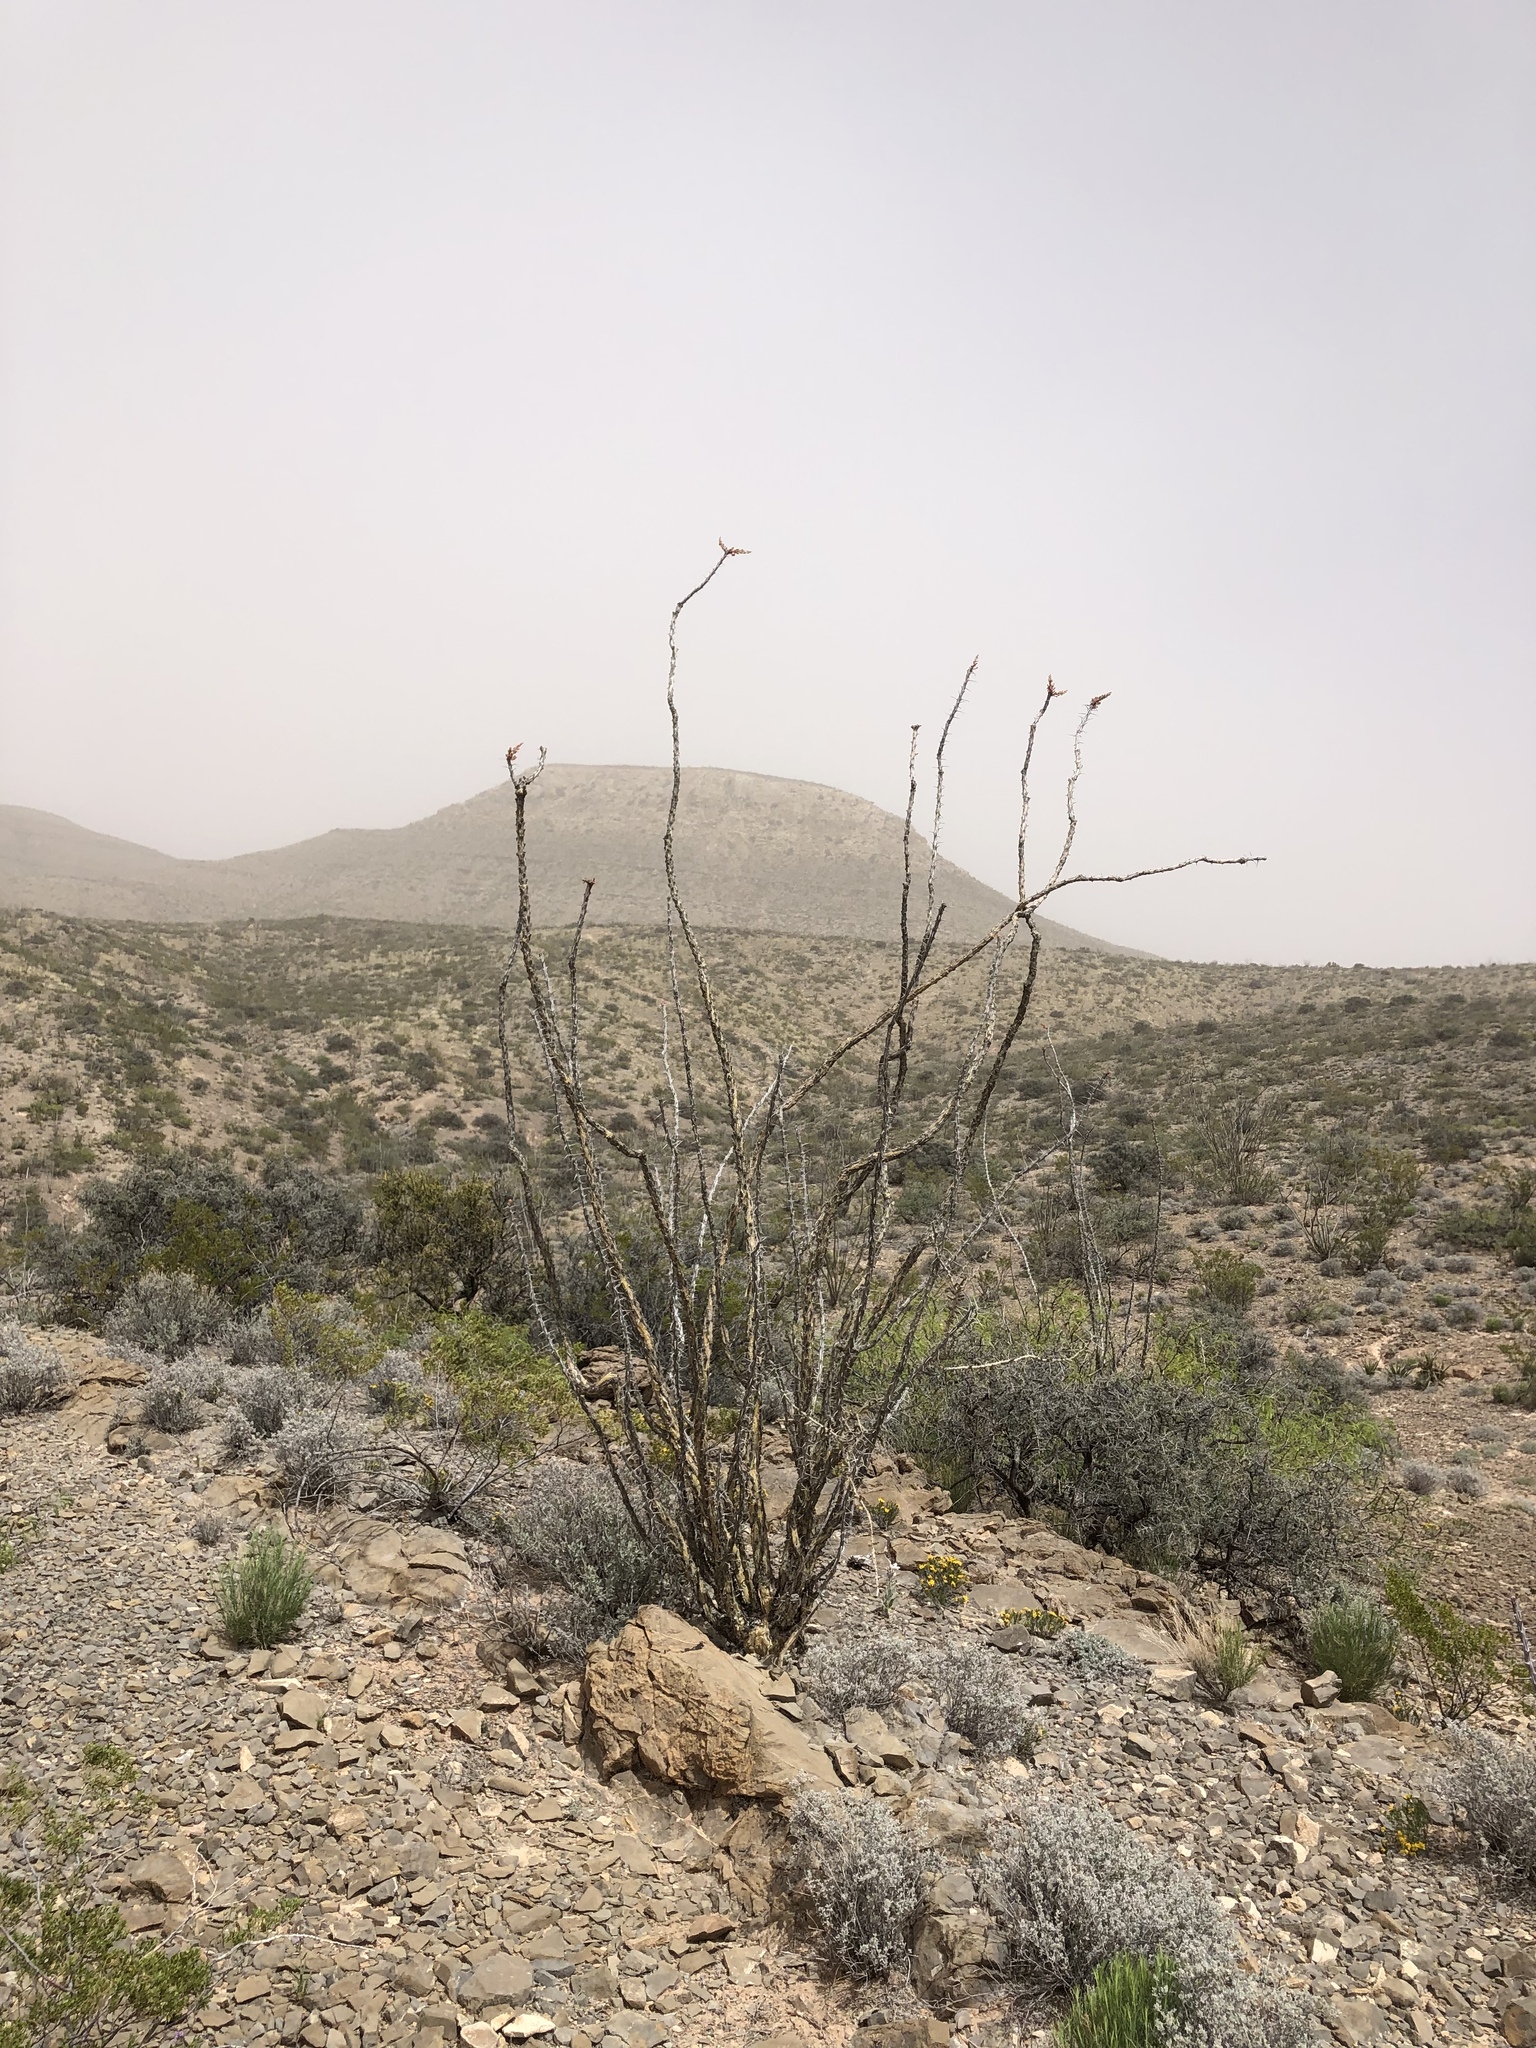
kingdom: Plantae
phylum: Tracheophyta
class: Magnoliopsida
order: Ericales
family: Fouquieriaceae
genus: Fouquieria
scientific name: Fouquieria splendens
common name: Vine-cactus
